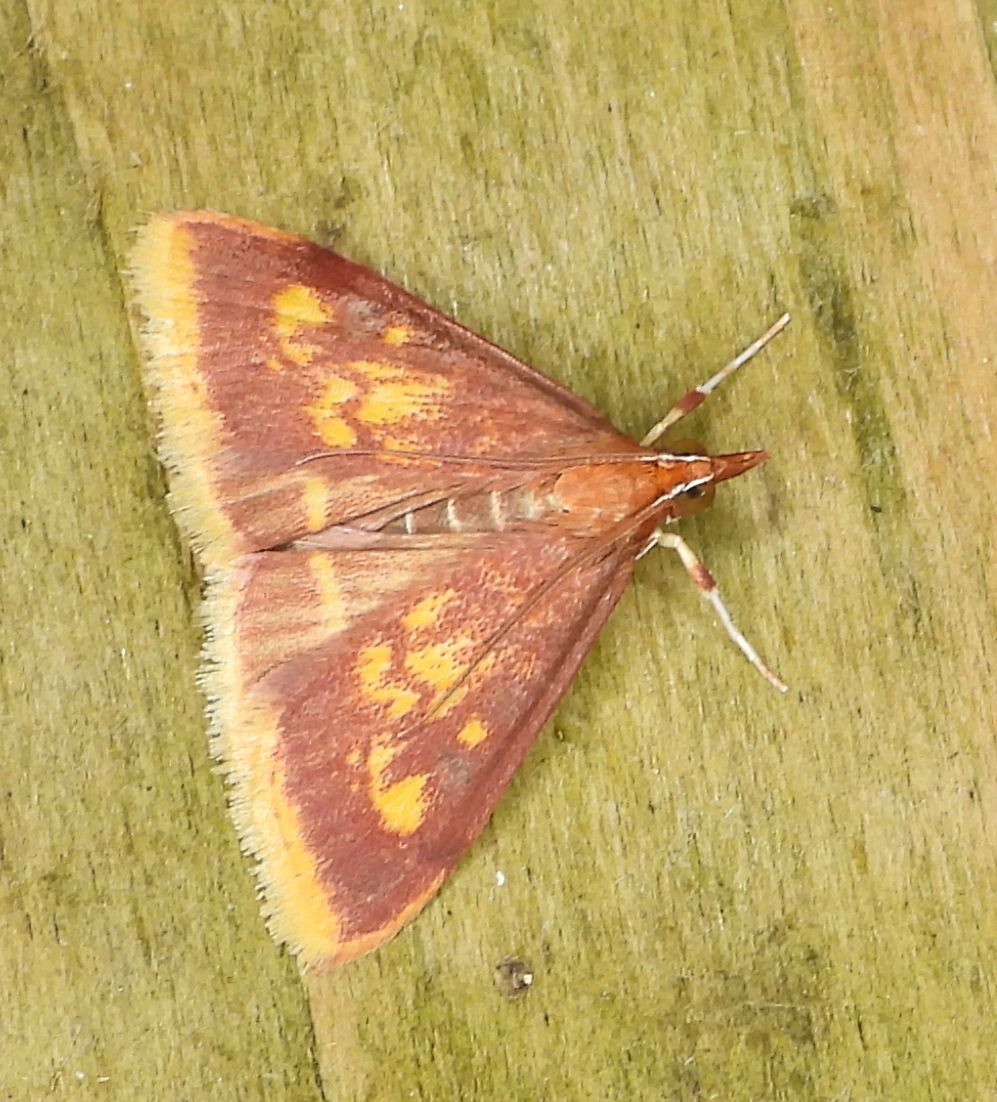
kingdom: Animalia
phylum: Arthropoda
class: Insecta
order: Lepidoptera
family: Crambidae
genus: Pyrausta
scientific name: Pyrausta acrionalis
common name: Mint-loving pyrausta moth
